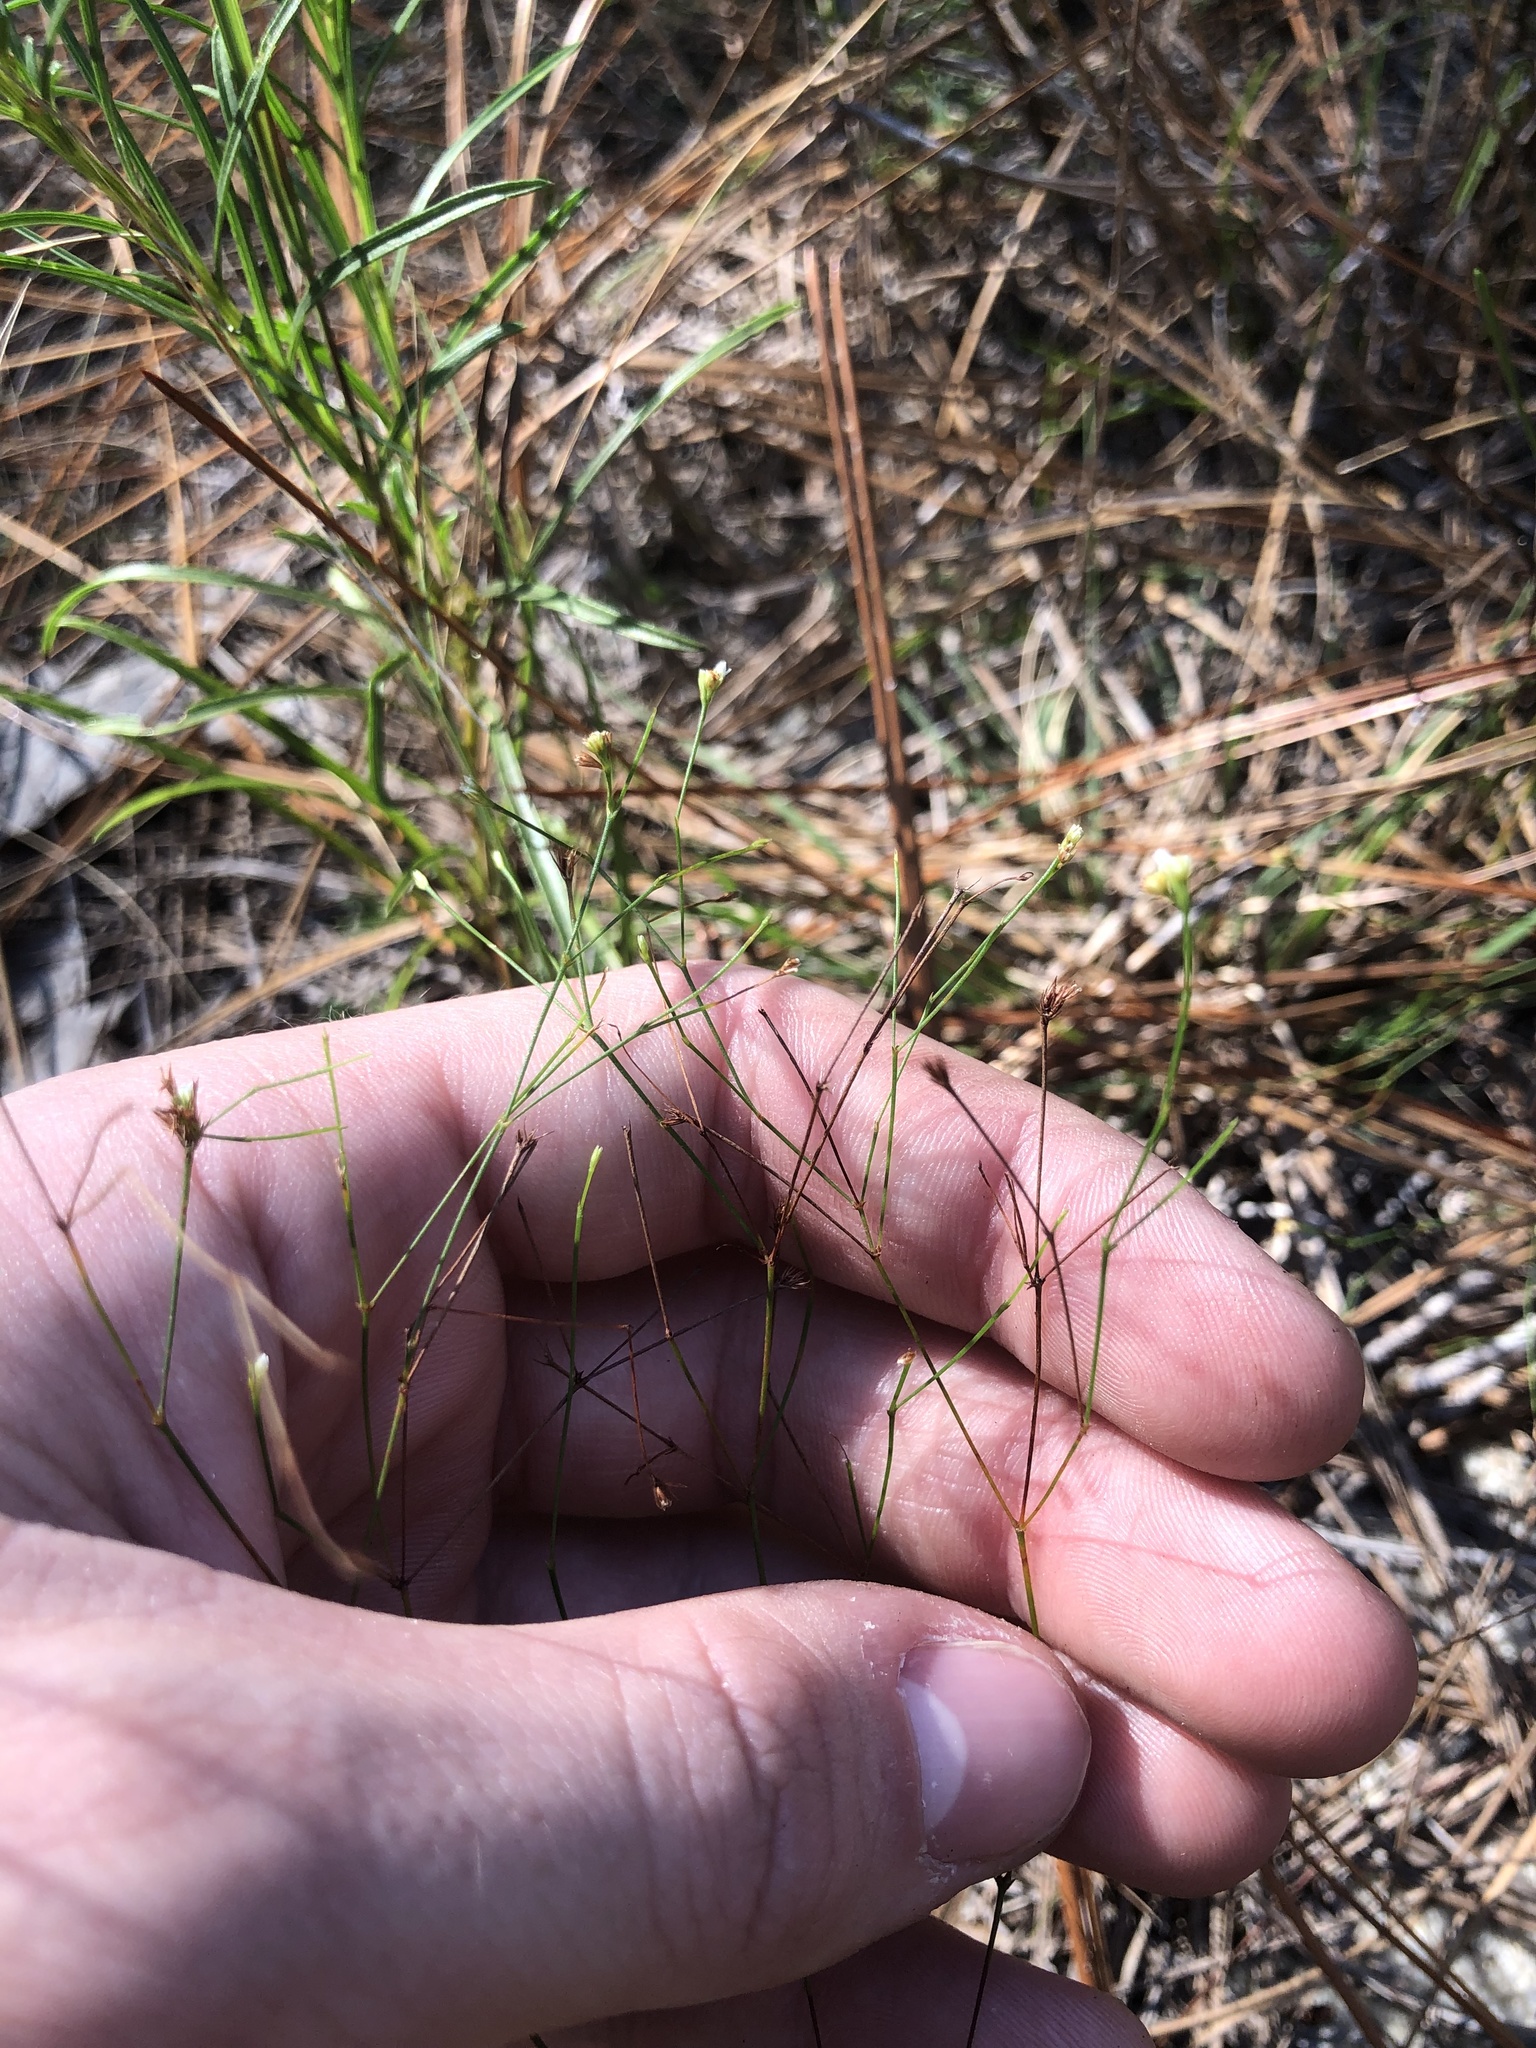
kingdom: Plantae
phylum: Tracheophyta
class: Magnoliopsida
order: Caryophyllales
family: Caryophyllaceae
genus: Stipulicida
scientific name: Stipulicida setacea
